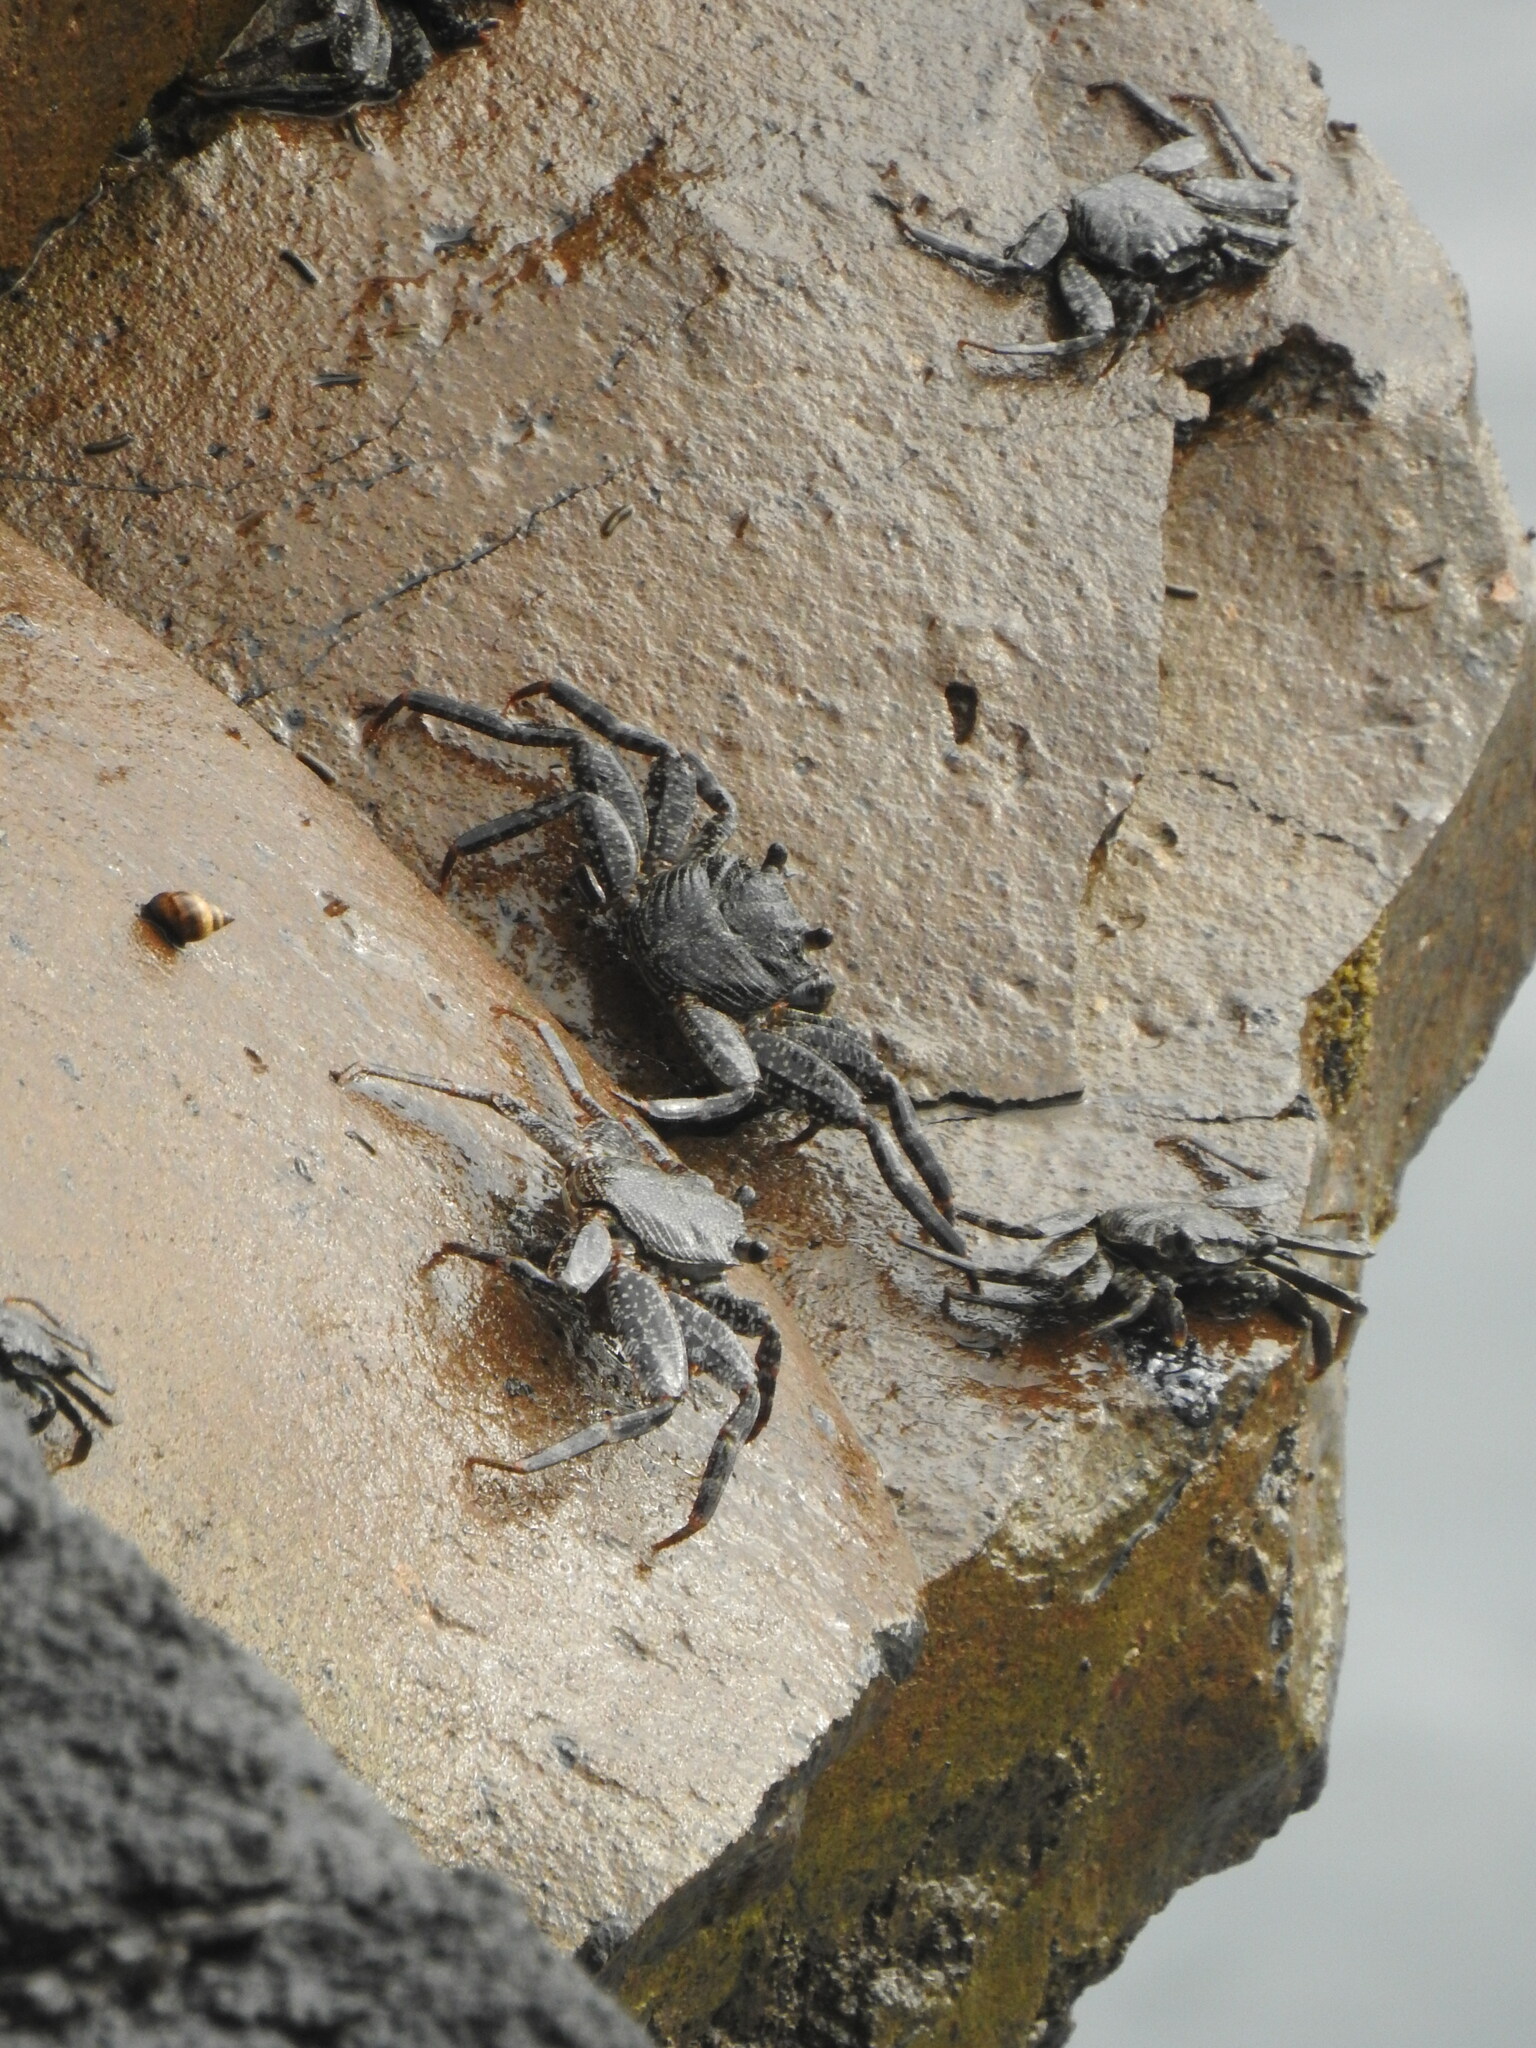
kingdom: Animalia
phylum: Arthropoda
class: Malacostraca
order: Decapoda
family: Grapsidae
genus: Grapsus
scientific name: Grapsus adscensionis
